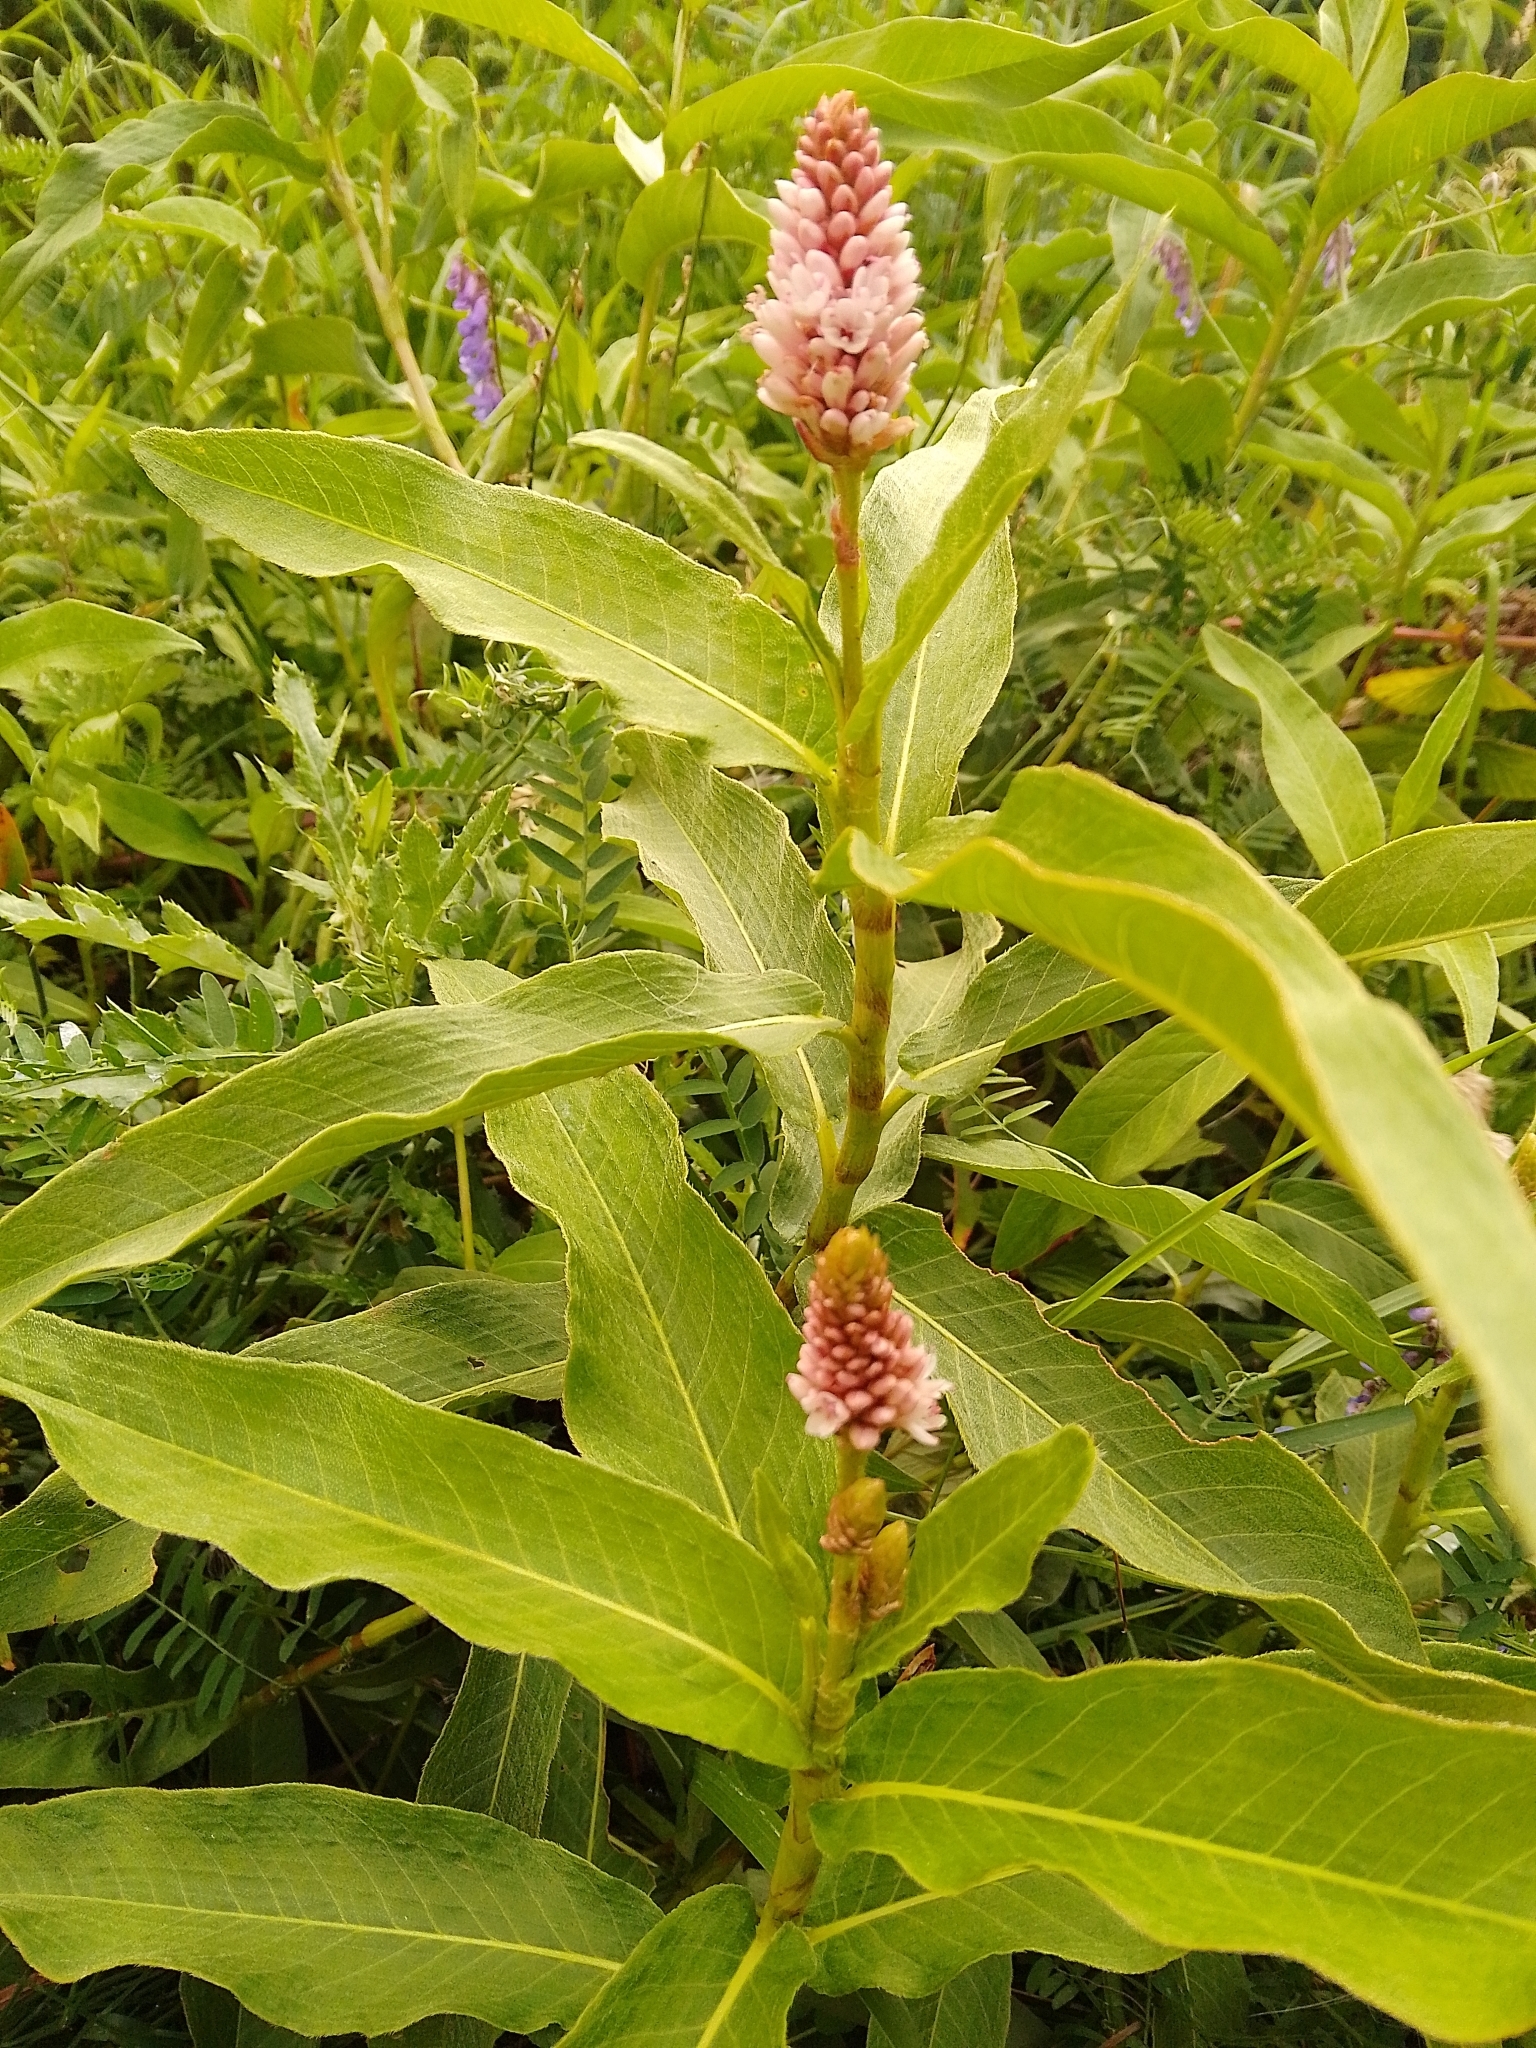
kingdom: Plantae
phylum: Tracheophyta
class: Magnoliopsida
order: Caryophyllales
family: Polygonaceae
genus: Persicaria
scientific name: Persicaria amphibia
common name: Amphibious bistort
